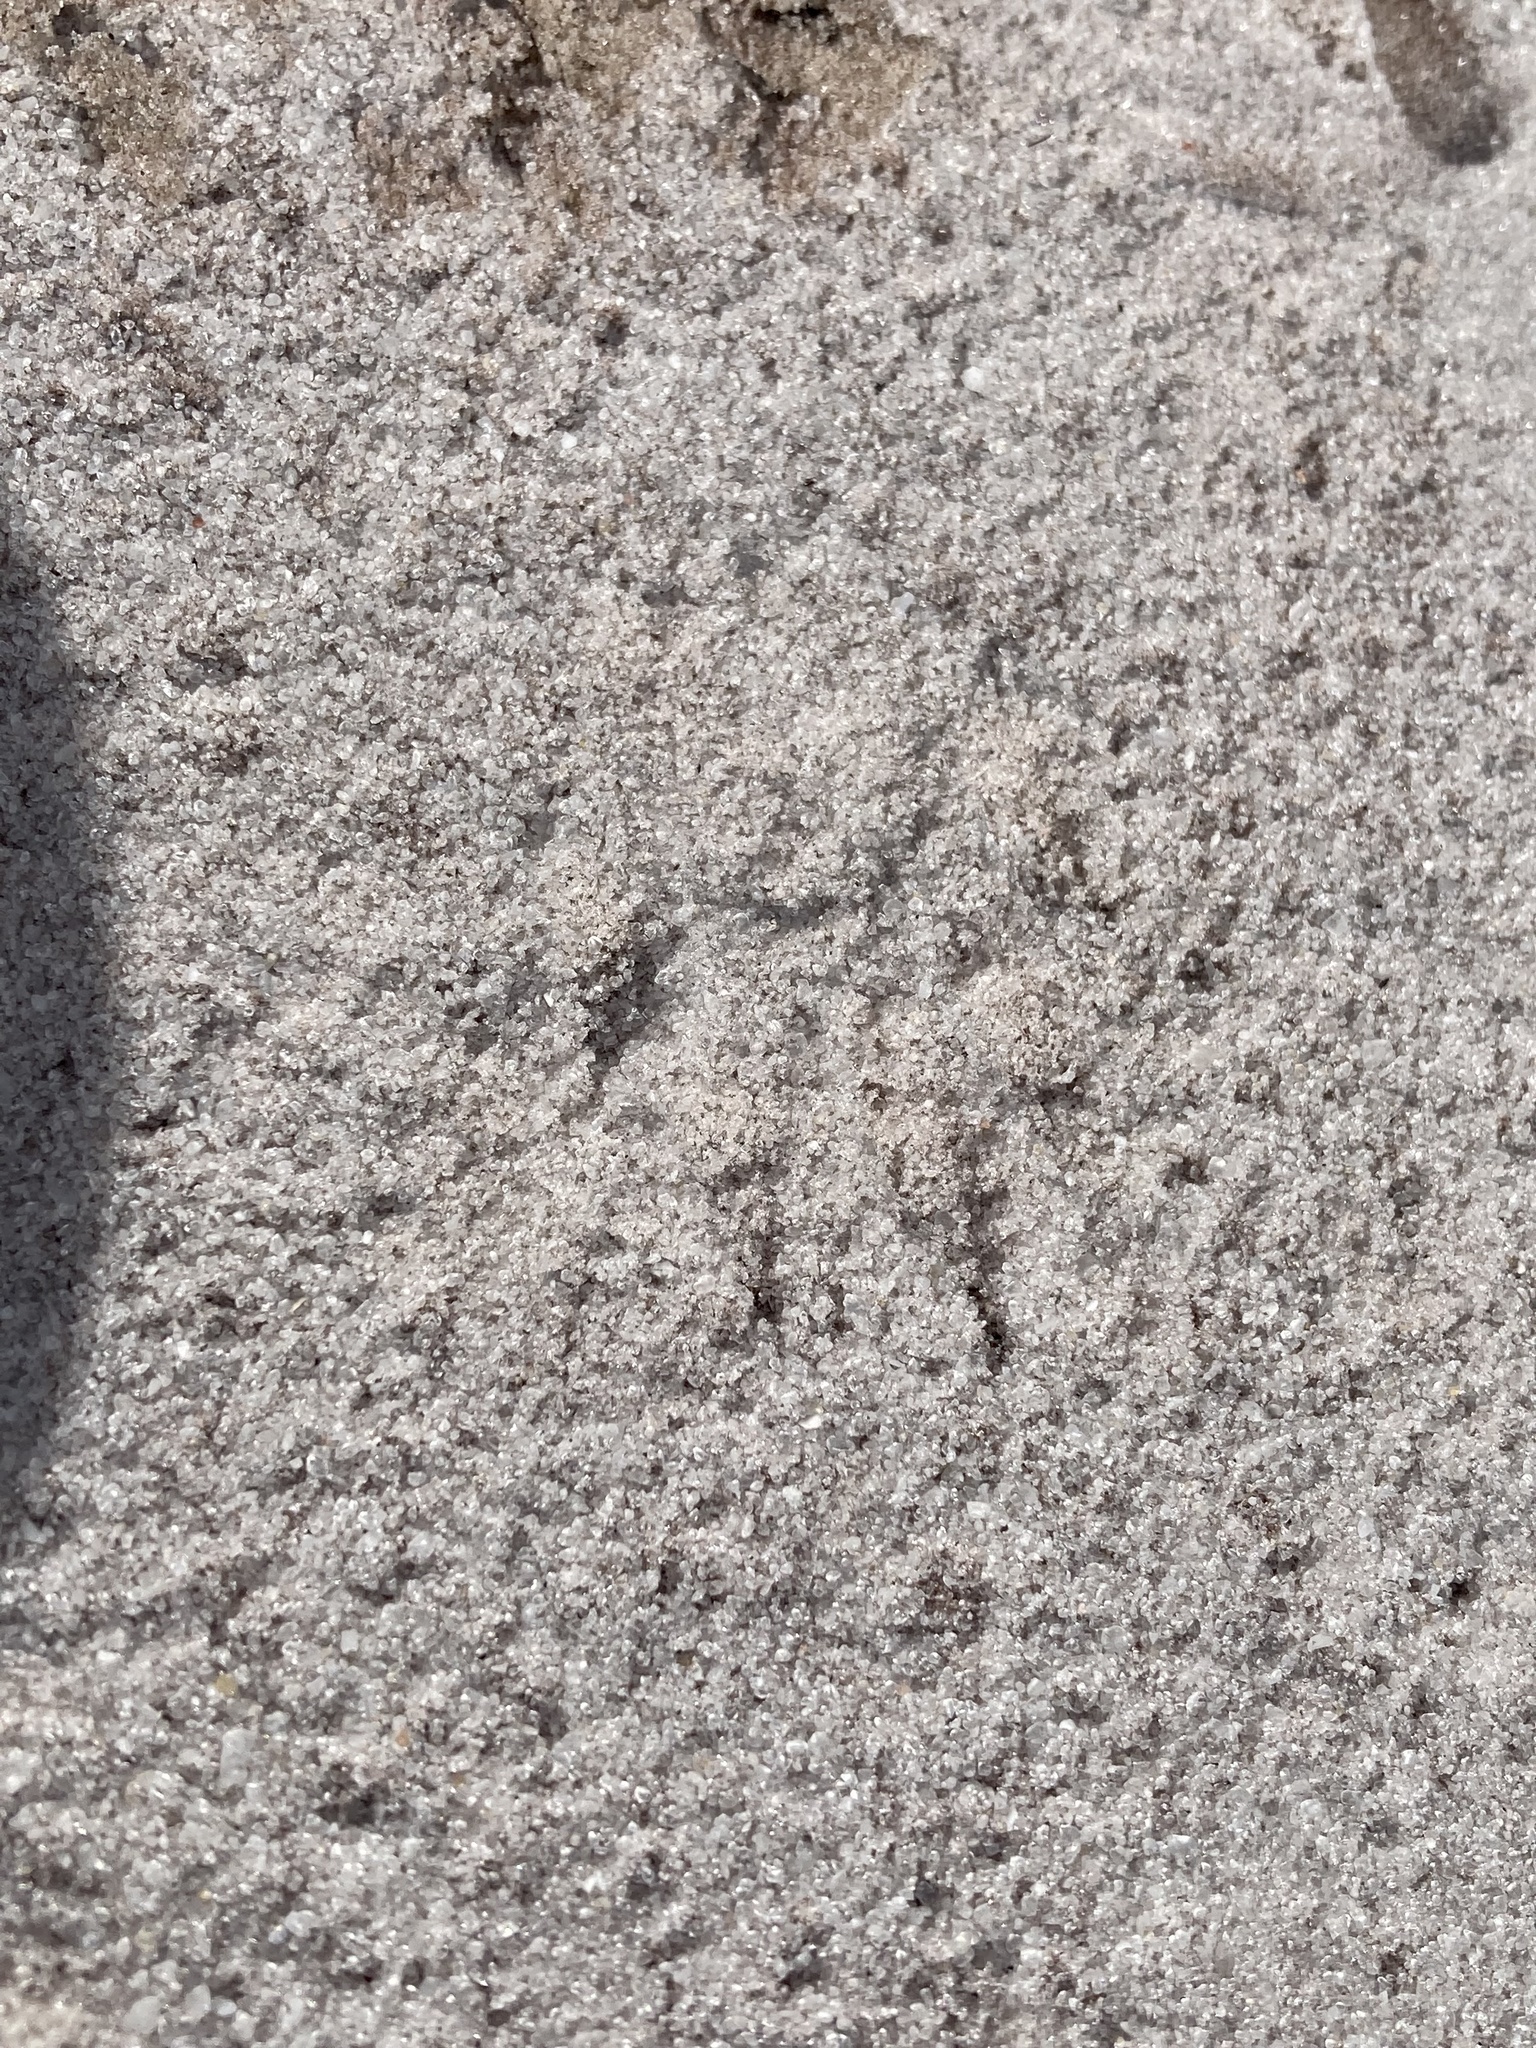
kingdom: Animalia
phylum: Chordata
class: Mammalia
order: Carnivora
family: Procyonidae
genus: Procyon
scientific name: Procyon lotor
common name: Raccoon
